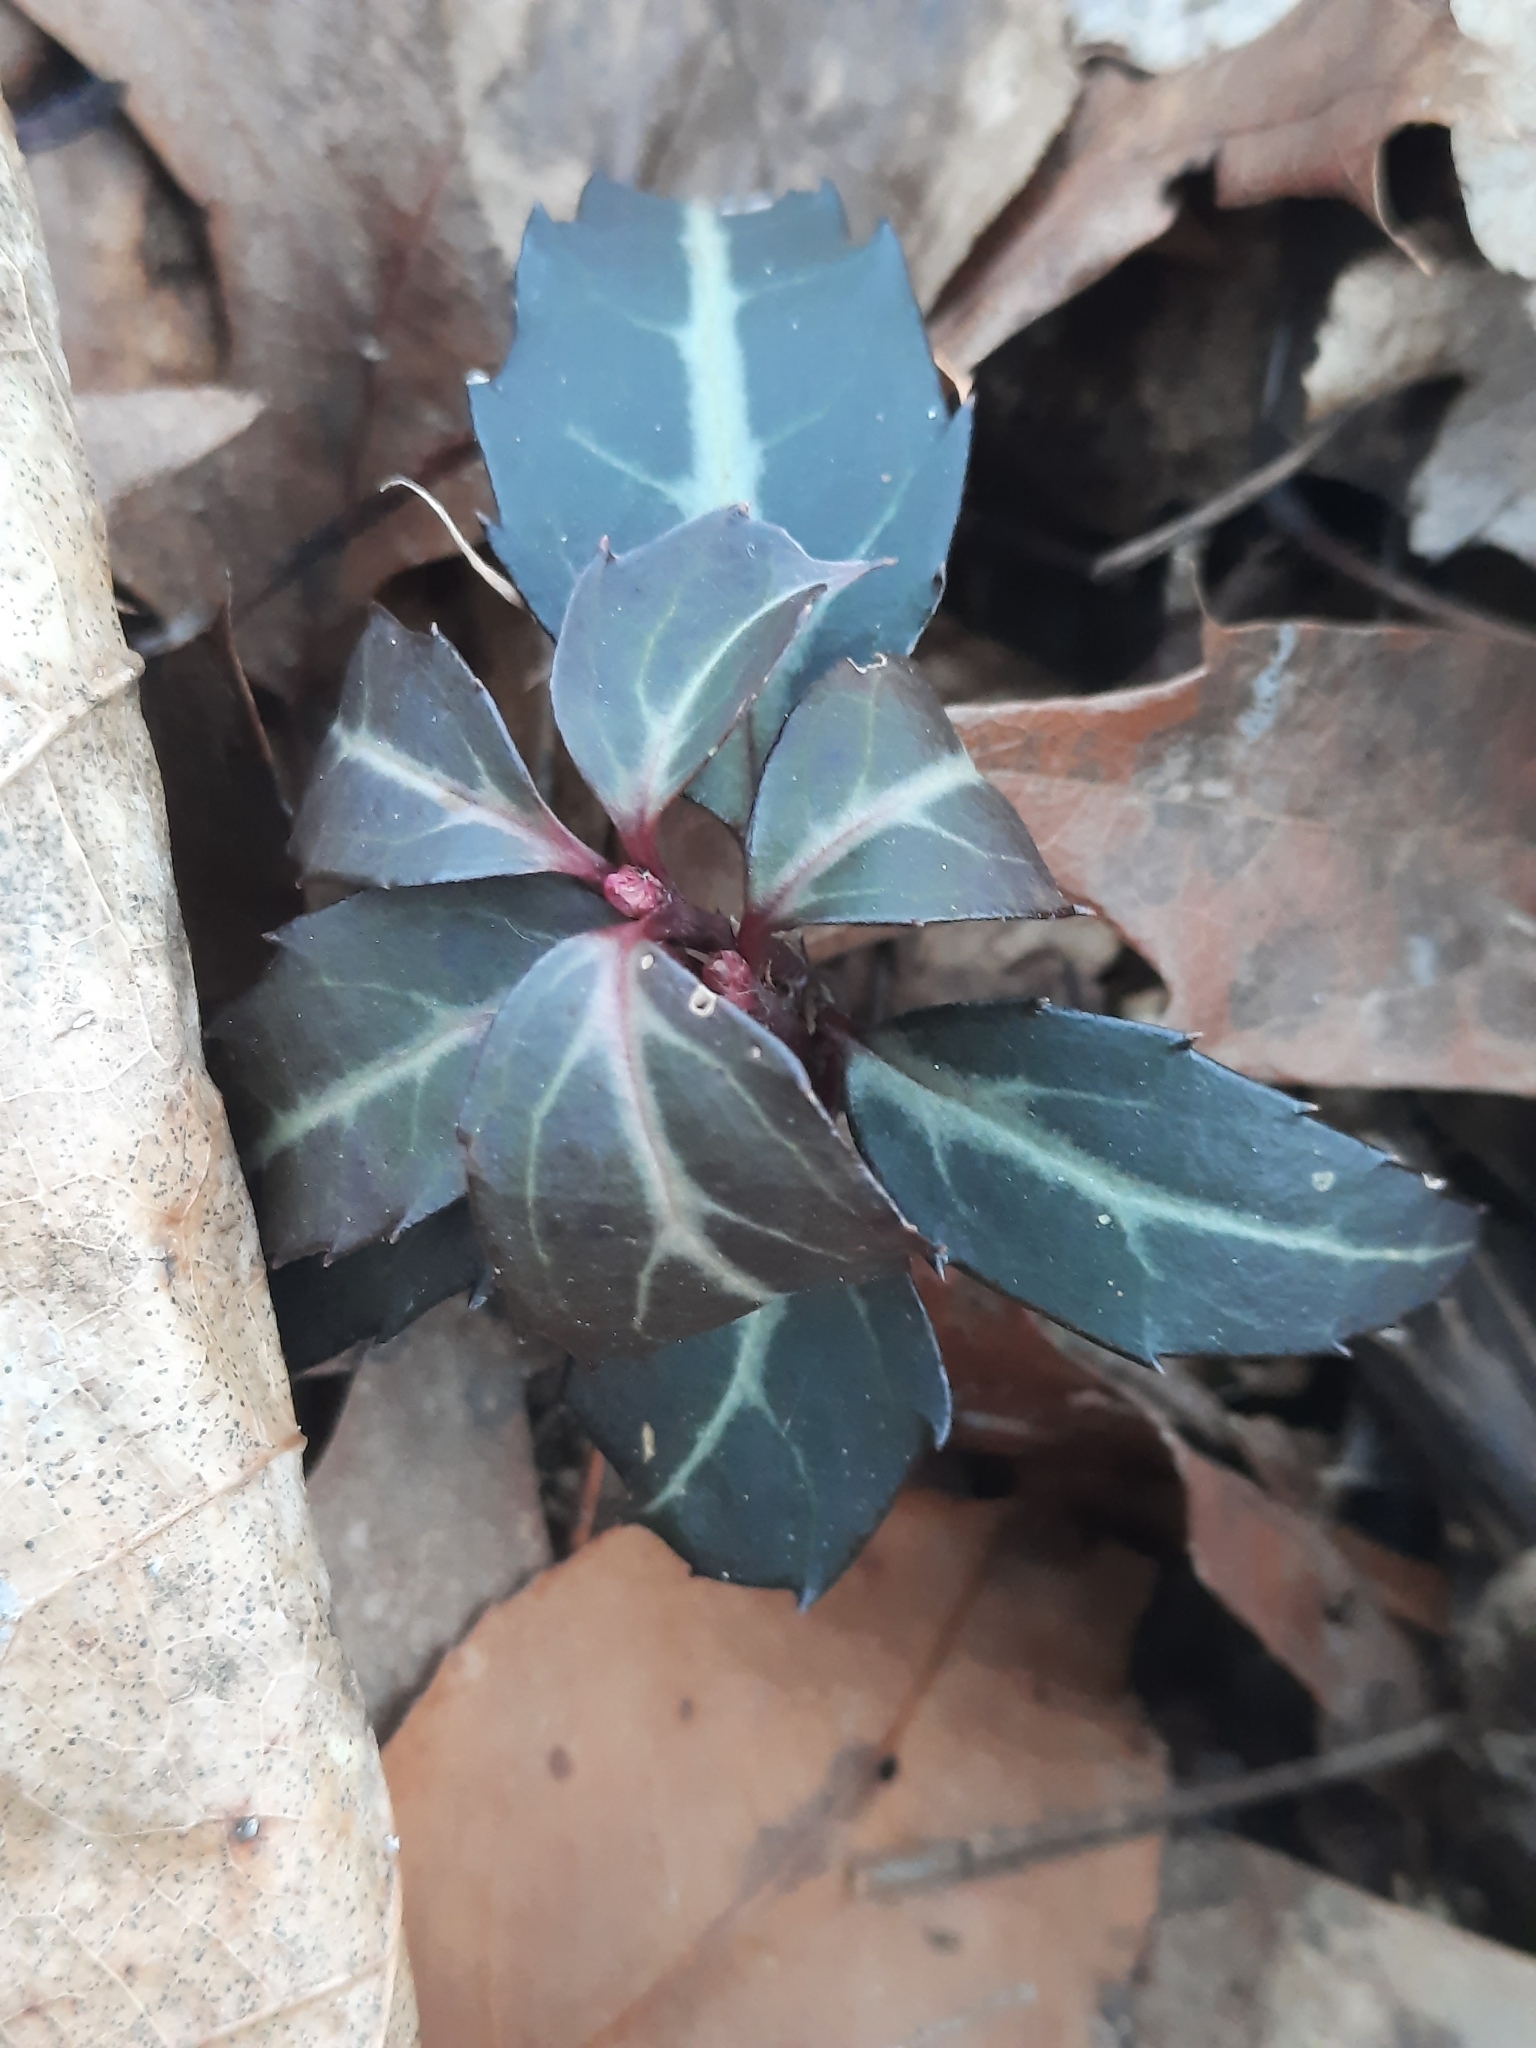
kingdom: Plantae
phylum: Tracheophyta
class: Magnoliopsida
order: Ericales
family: Ericaceae
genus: Chimaphila
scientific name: Chimaphila maculata
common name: Spotted pipsissewa
